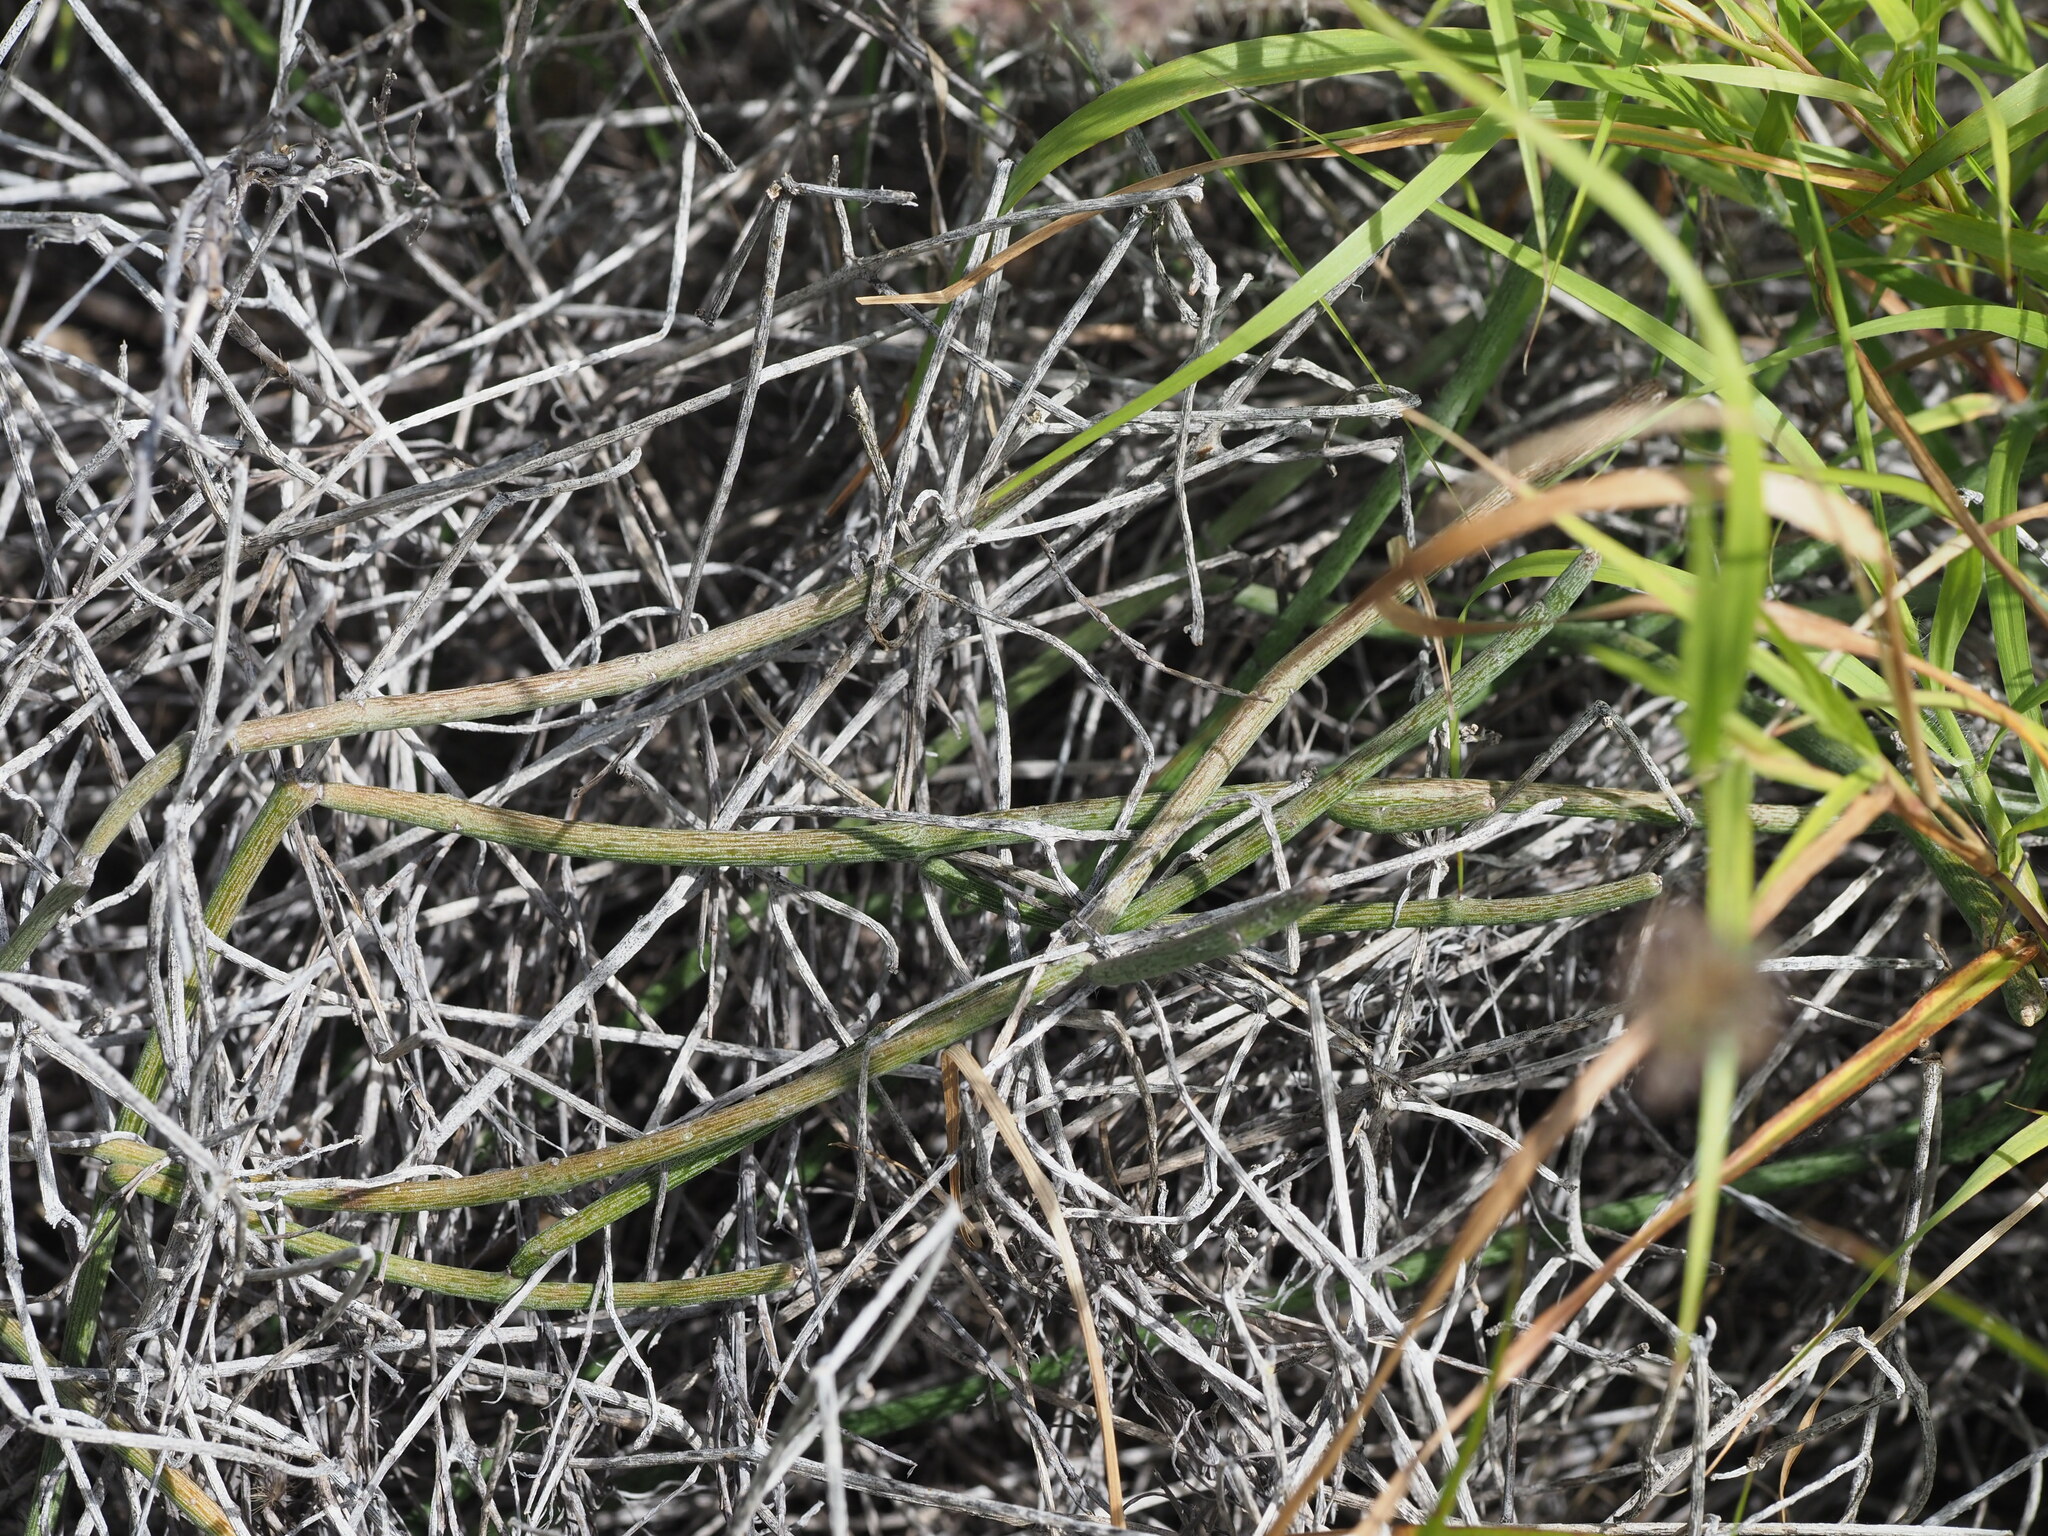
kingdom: Plantae
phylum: Tracheophyta
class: Magnoliopsida
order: Gentianales
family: Apocynaceae
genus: Cynanchum
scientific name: Cynanchum gerrardi
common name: Swallow-wort
